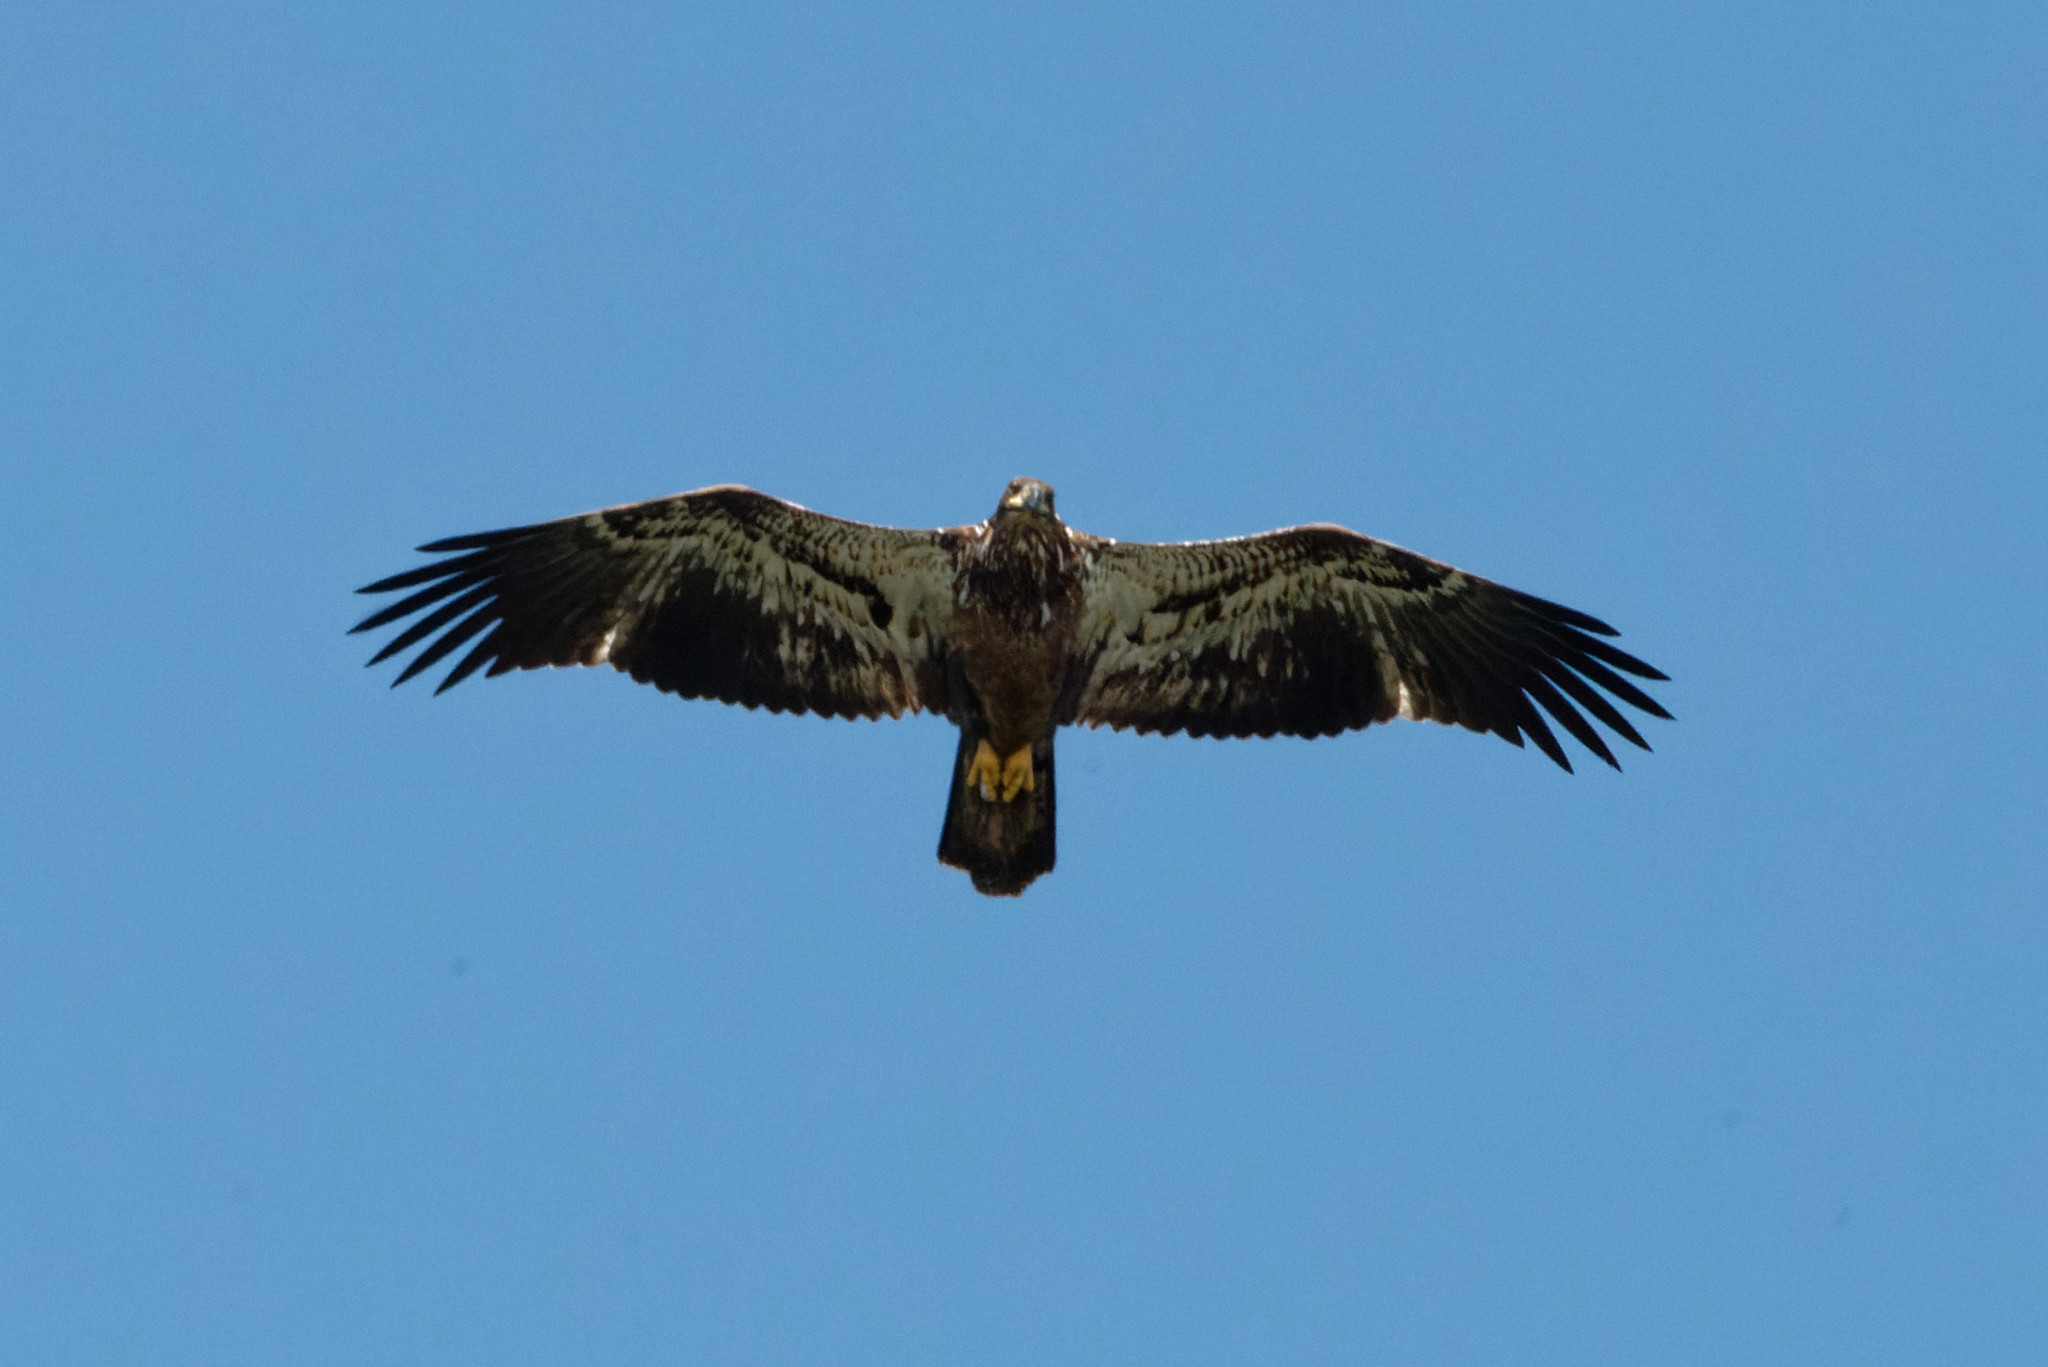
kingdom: Animalia
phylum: Chordata
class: Aves
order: Accipitriformes
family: Accipitridae
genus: Haliaeetus
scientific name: Haliaeetus leucocephalus
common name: Bald eagle
